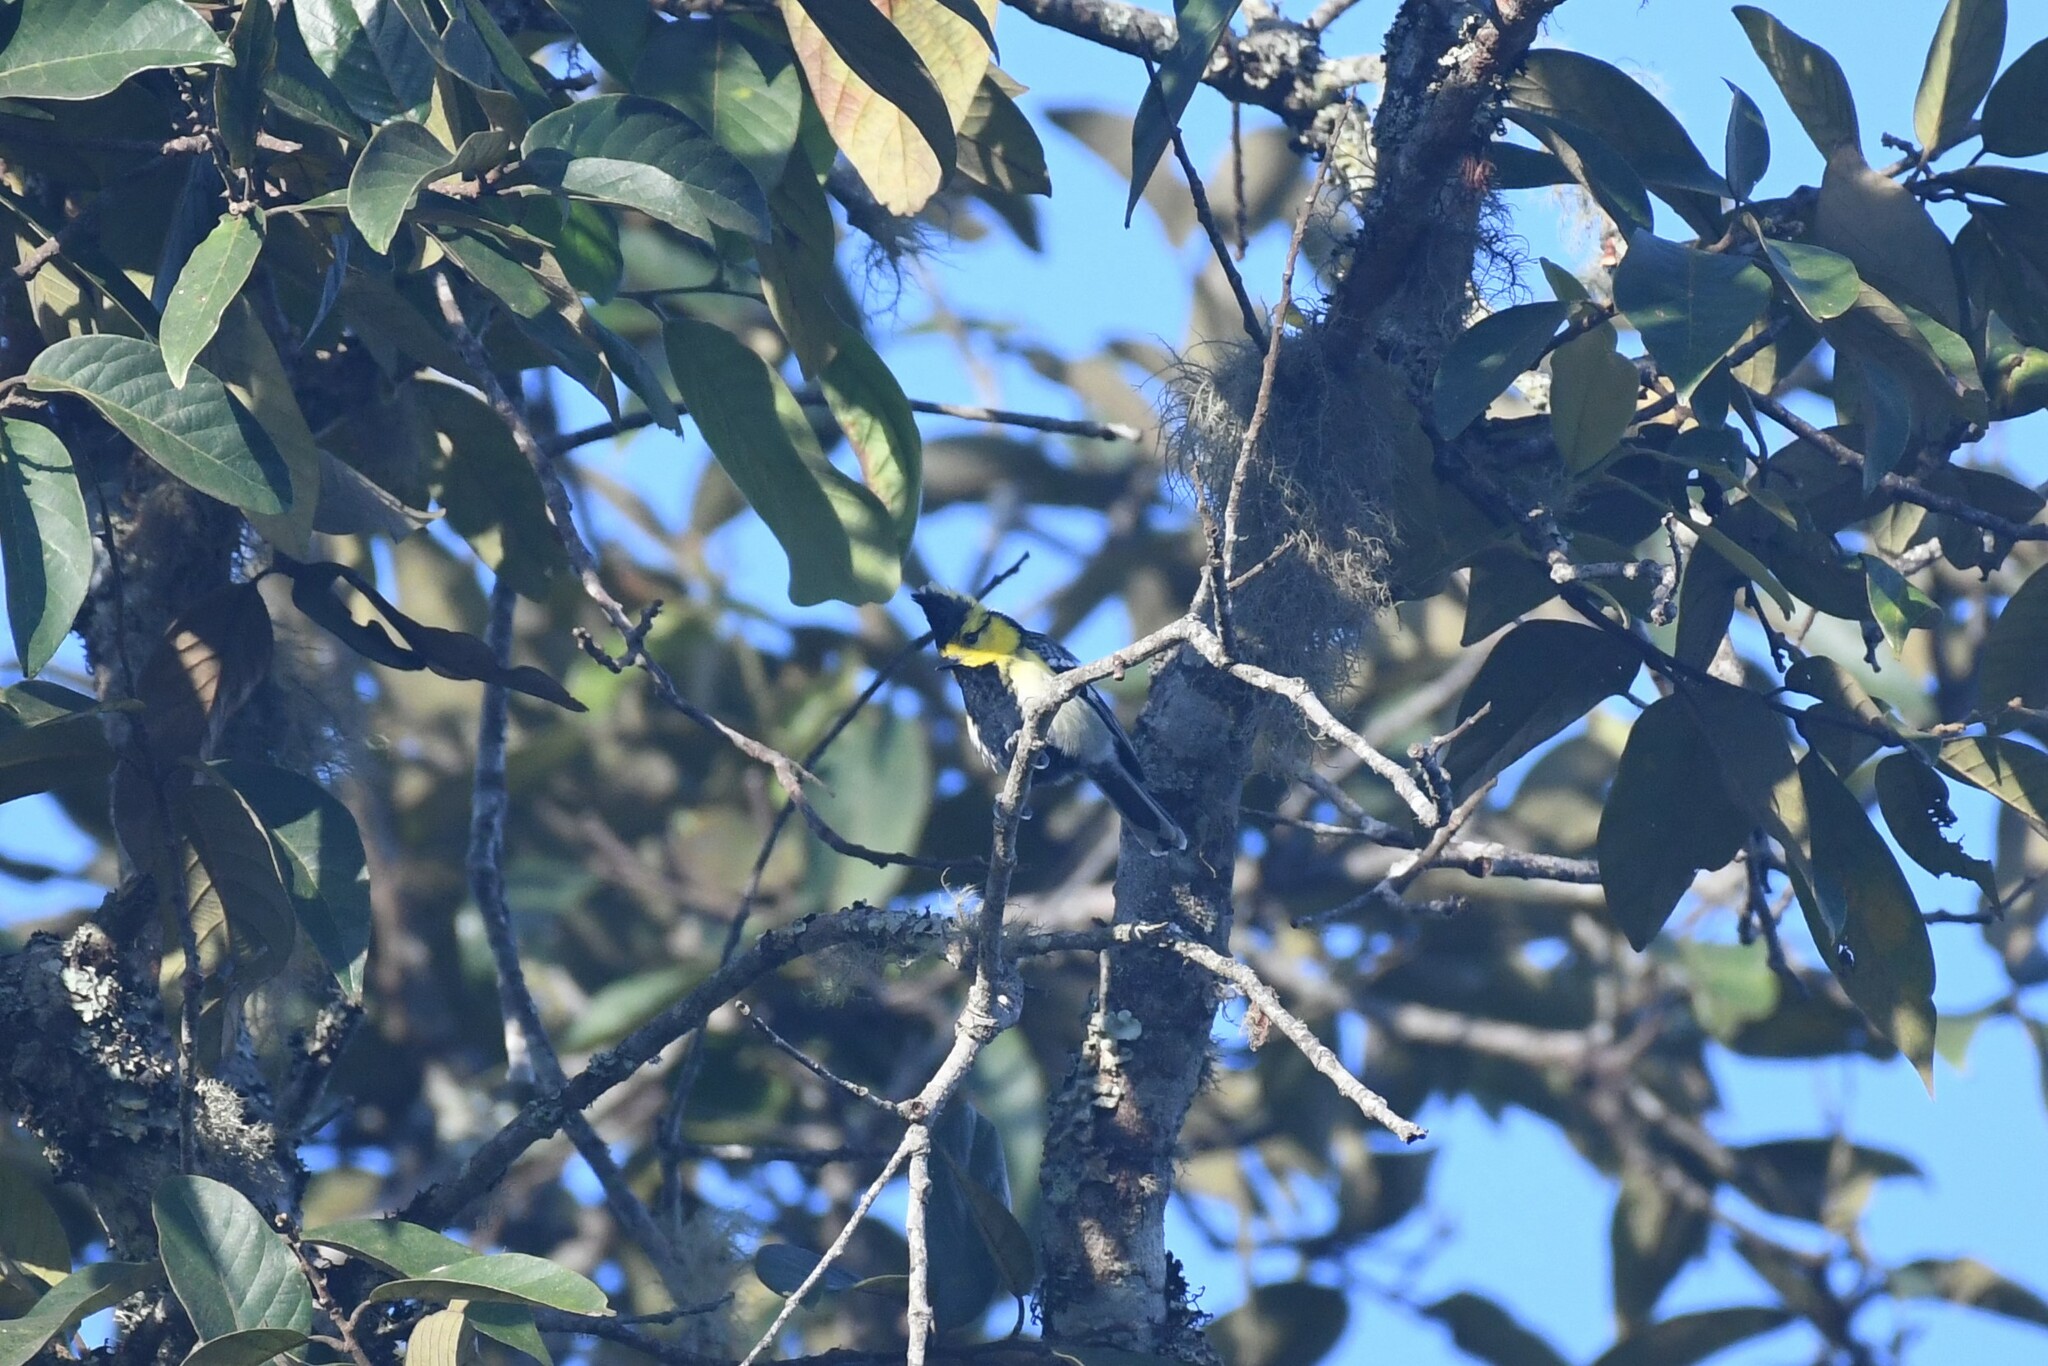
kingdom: Animalia
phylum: Chordata
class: Aves
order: Passeriformes
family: Paridae
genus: Parus
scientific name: Parus spilonotus
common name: Yellow-cheeked tit
